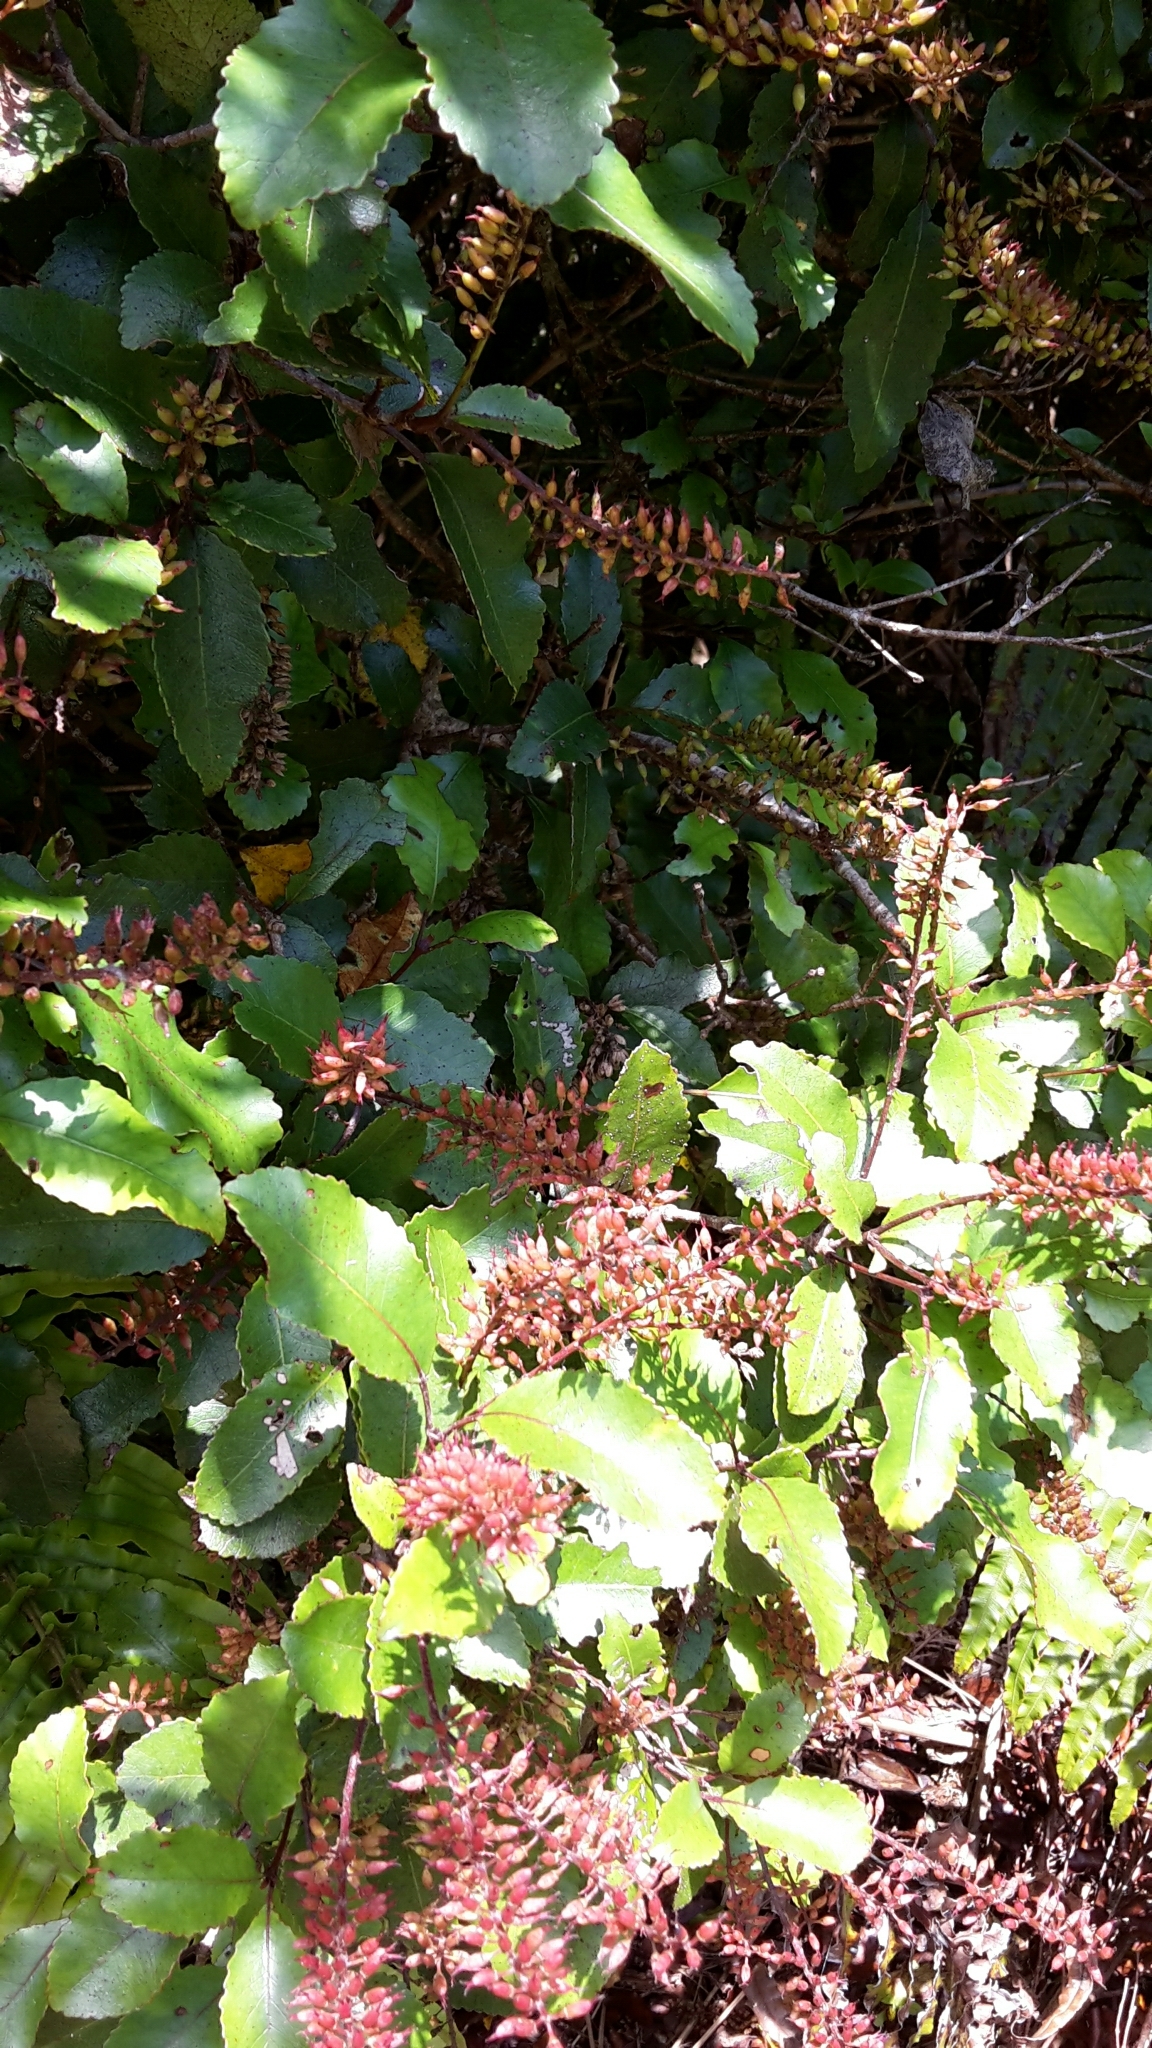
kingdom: Plantae
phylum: Tracheophyta
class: Magnoliopsida
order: Oxalidales
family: Cunoniaceae
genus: Pterophylla
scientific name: Pterophylla racemosa
